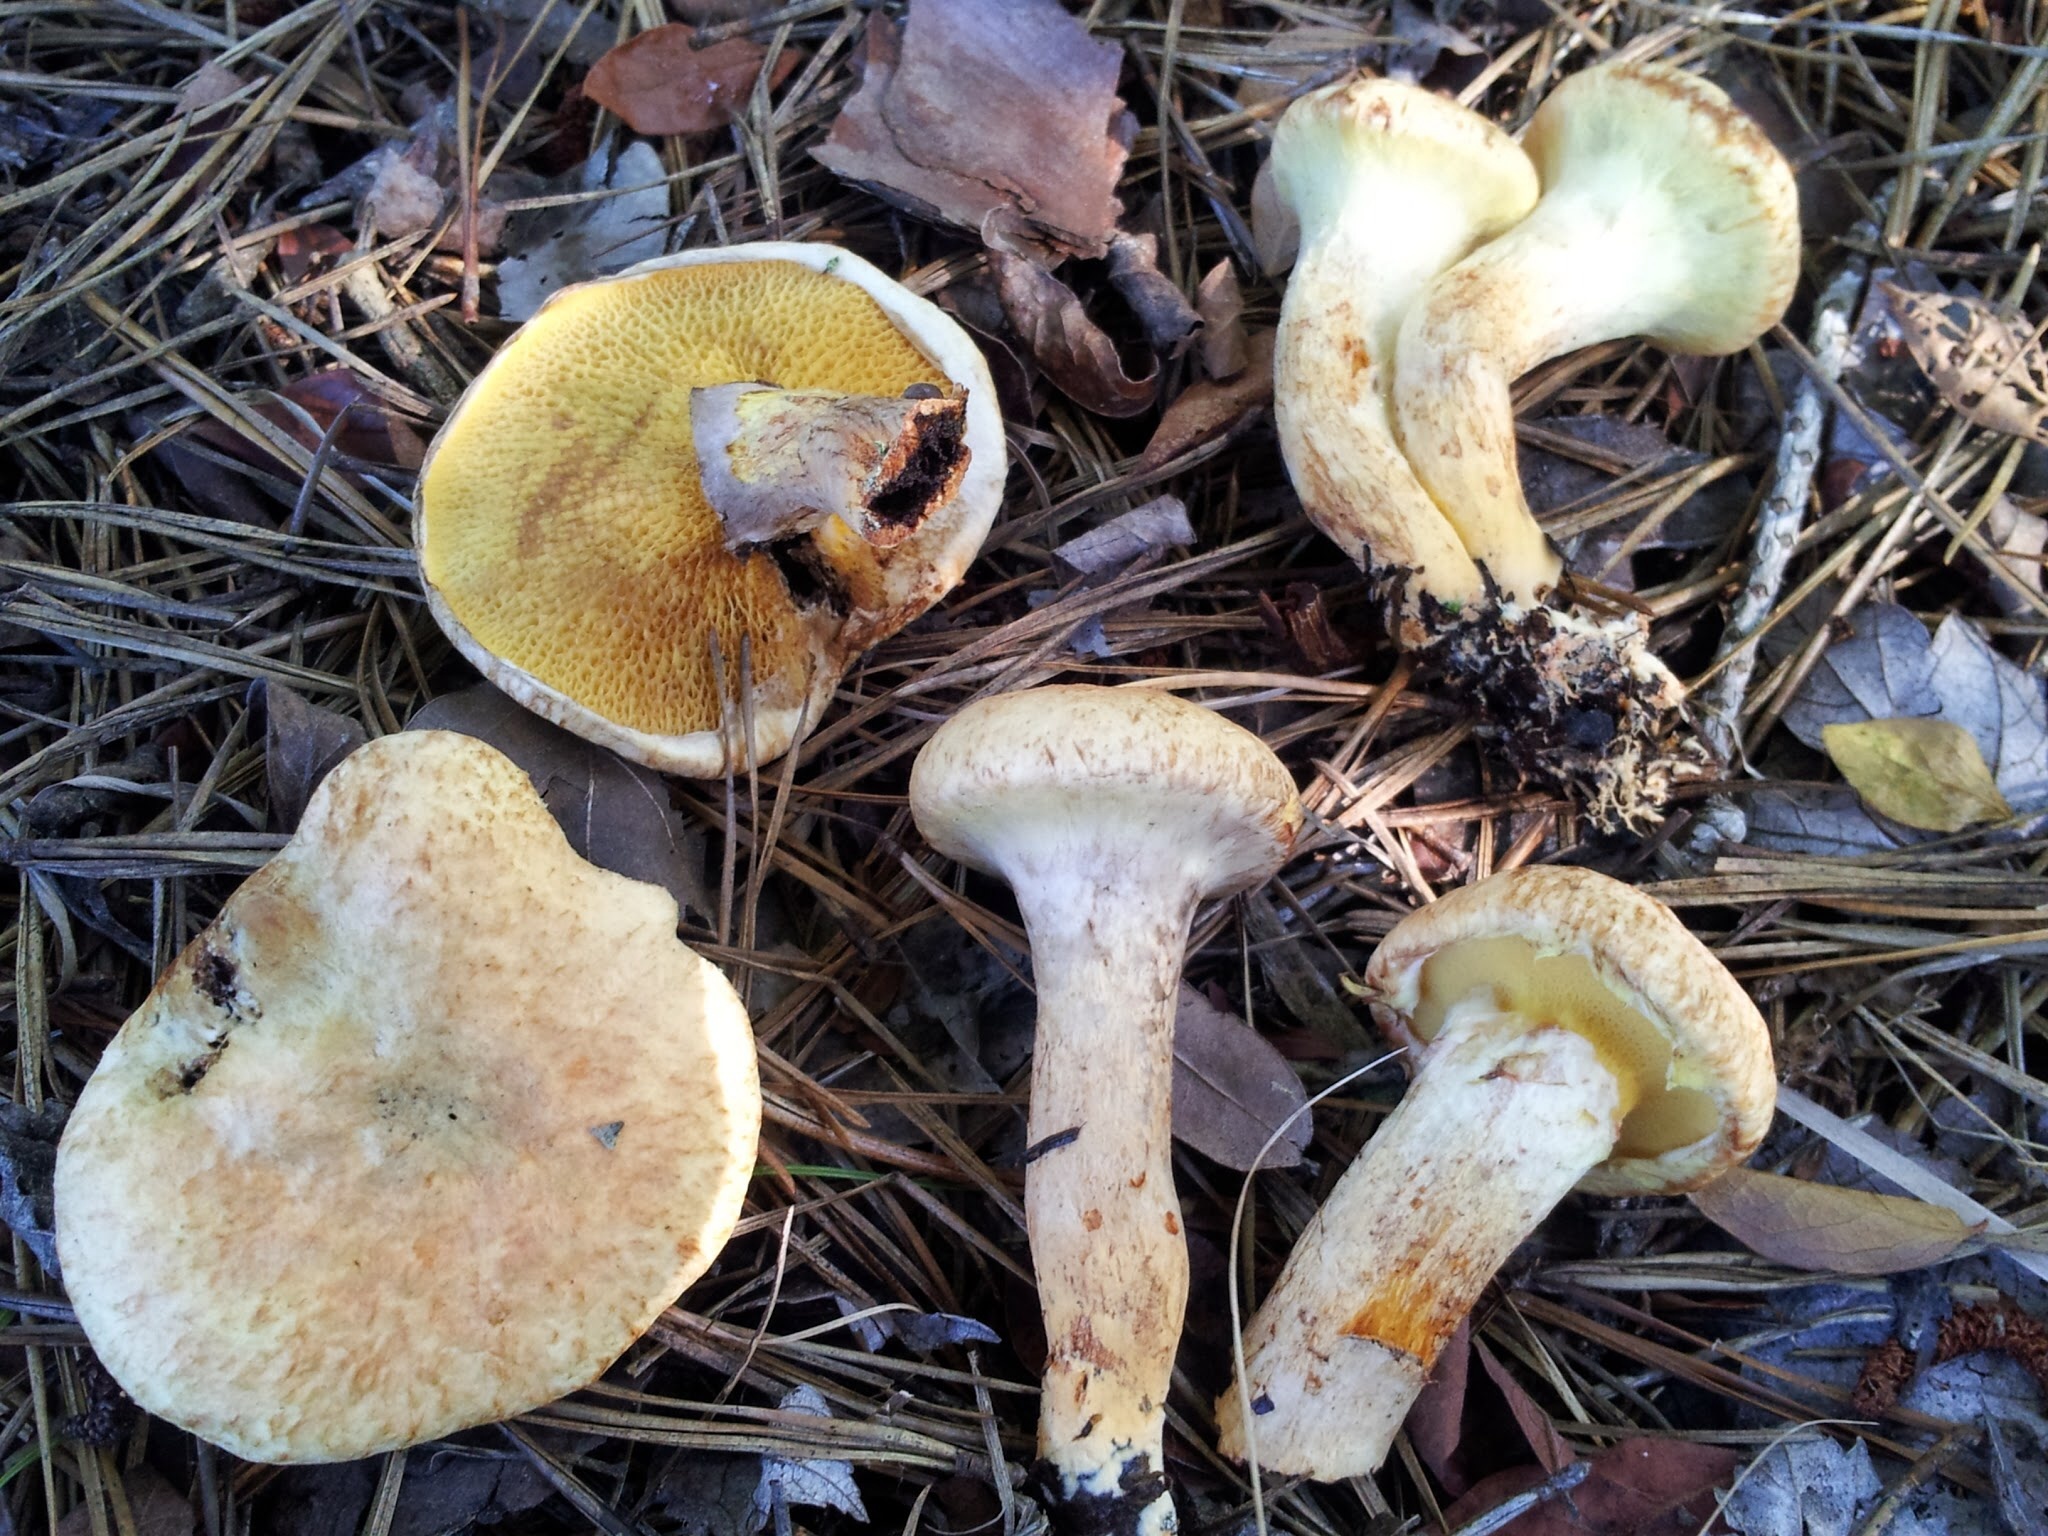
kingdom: Fungi
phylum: Basidiomycota
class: Agaricomycetes
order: Boletales
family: Suillaceae
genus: Suillus
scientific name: Suillus decipiens
